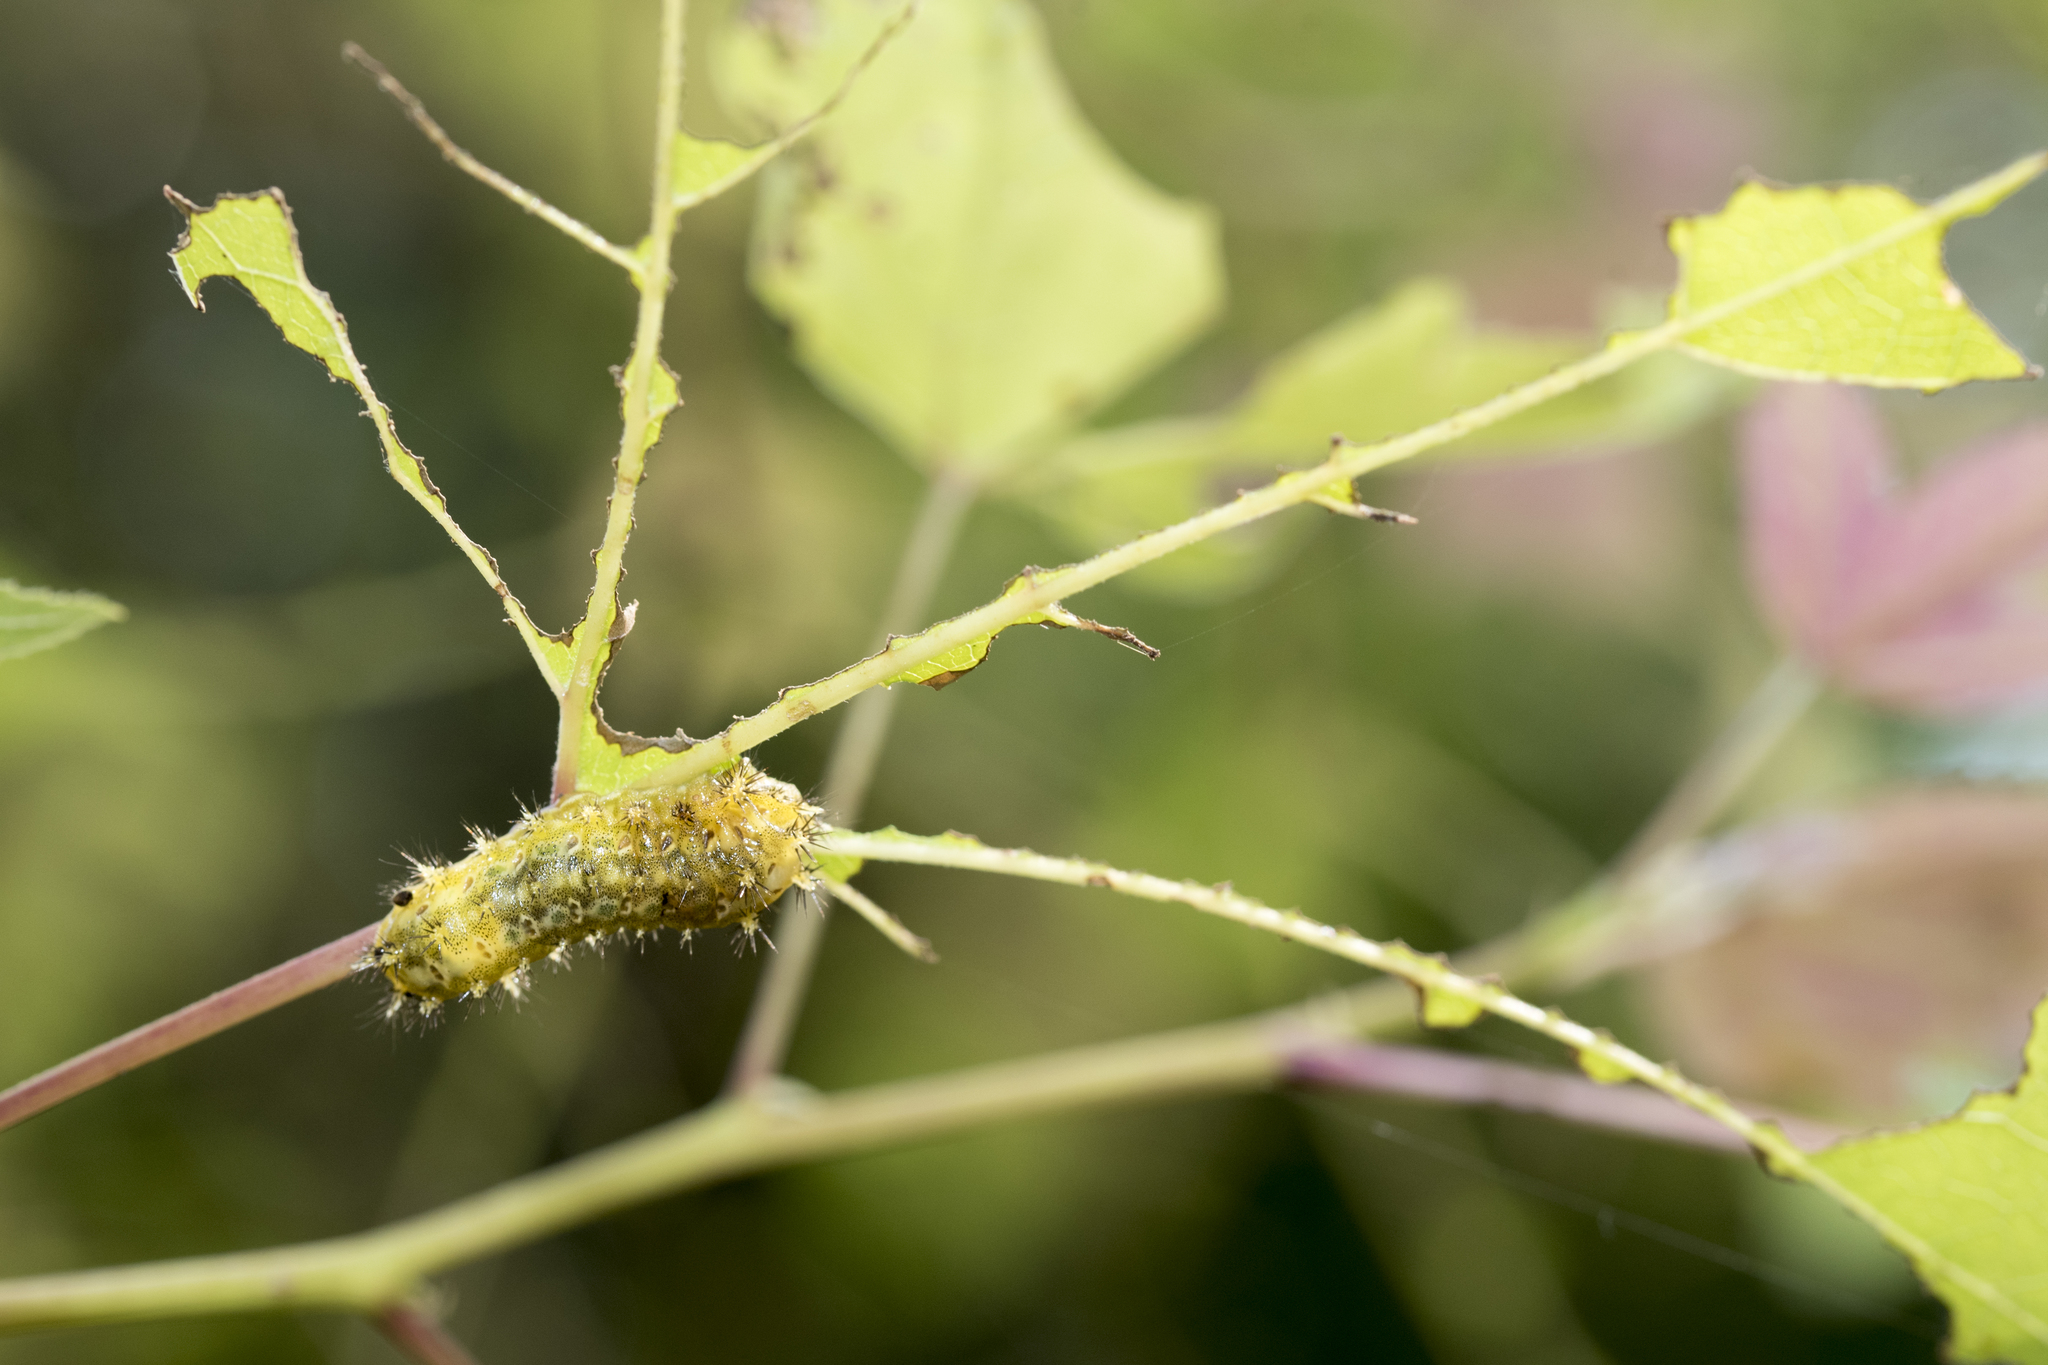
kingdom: Animalia
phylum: Arthropoda
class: Insecta
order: Lepidoptera
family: Limacodidae
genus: Scopelodes
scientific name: Scopelodes contracta
